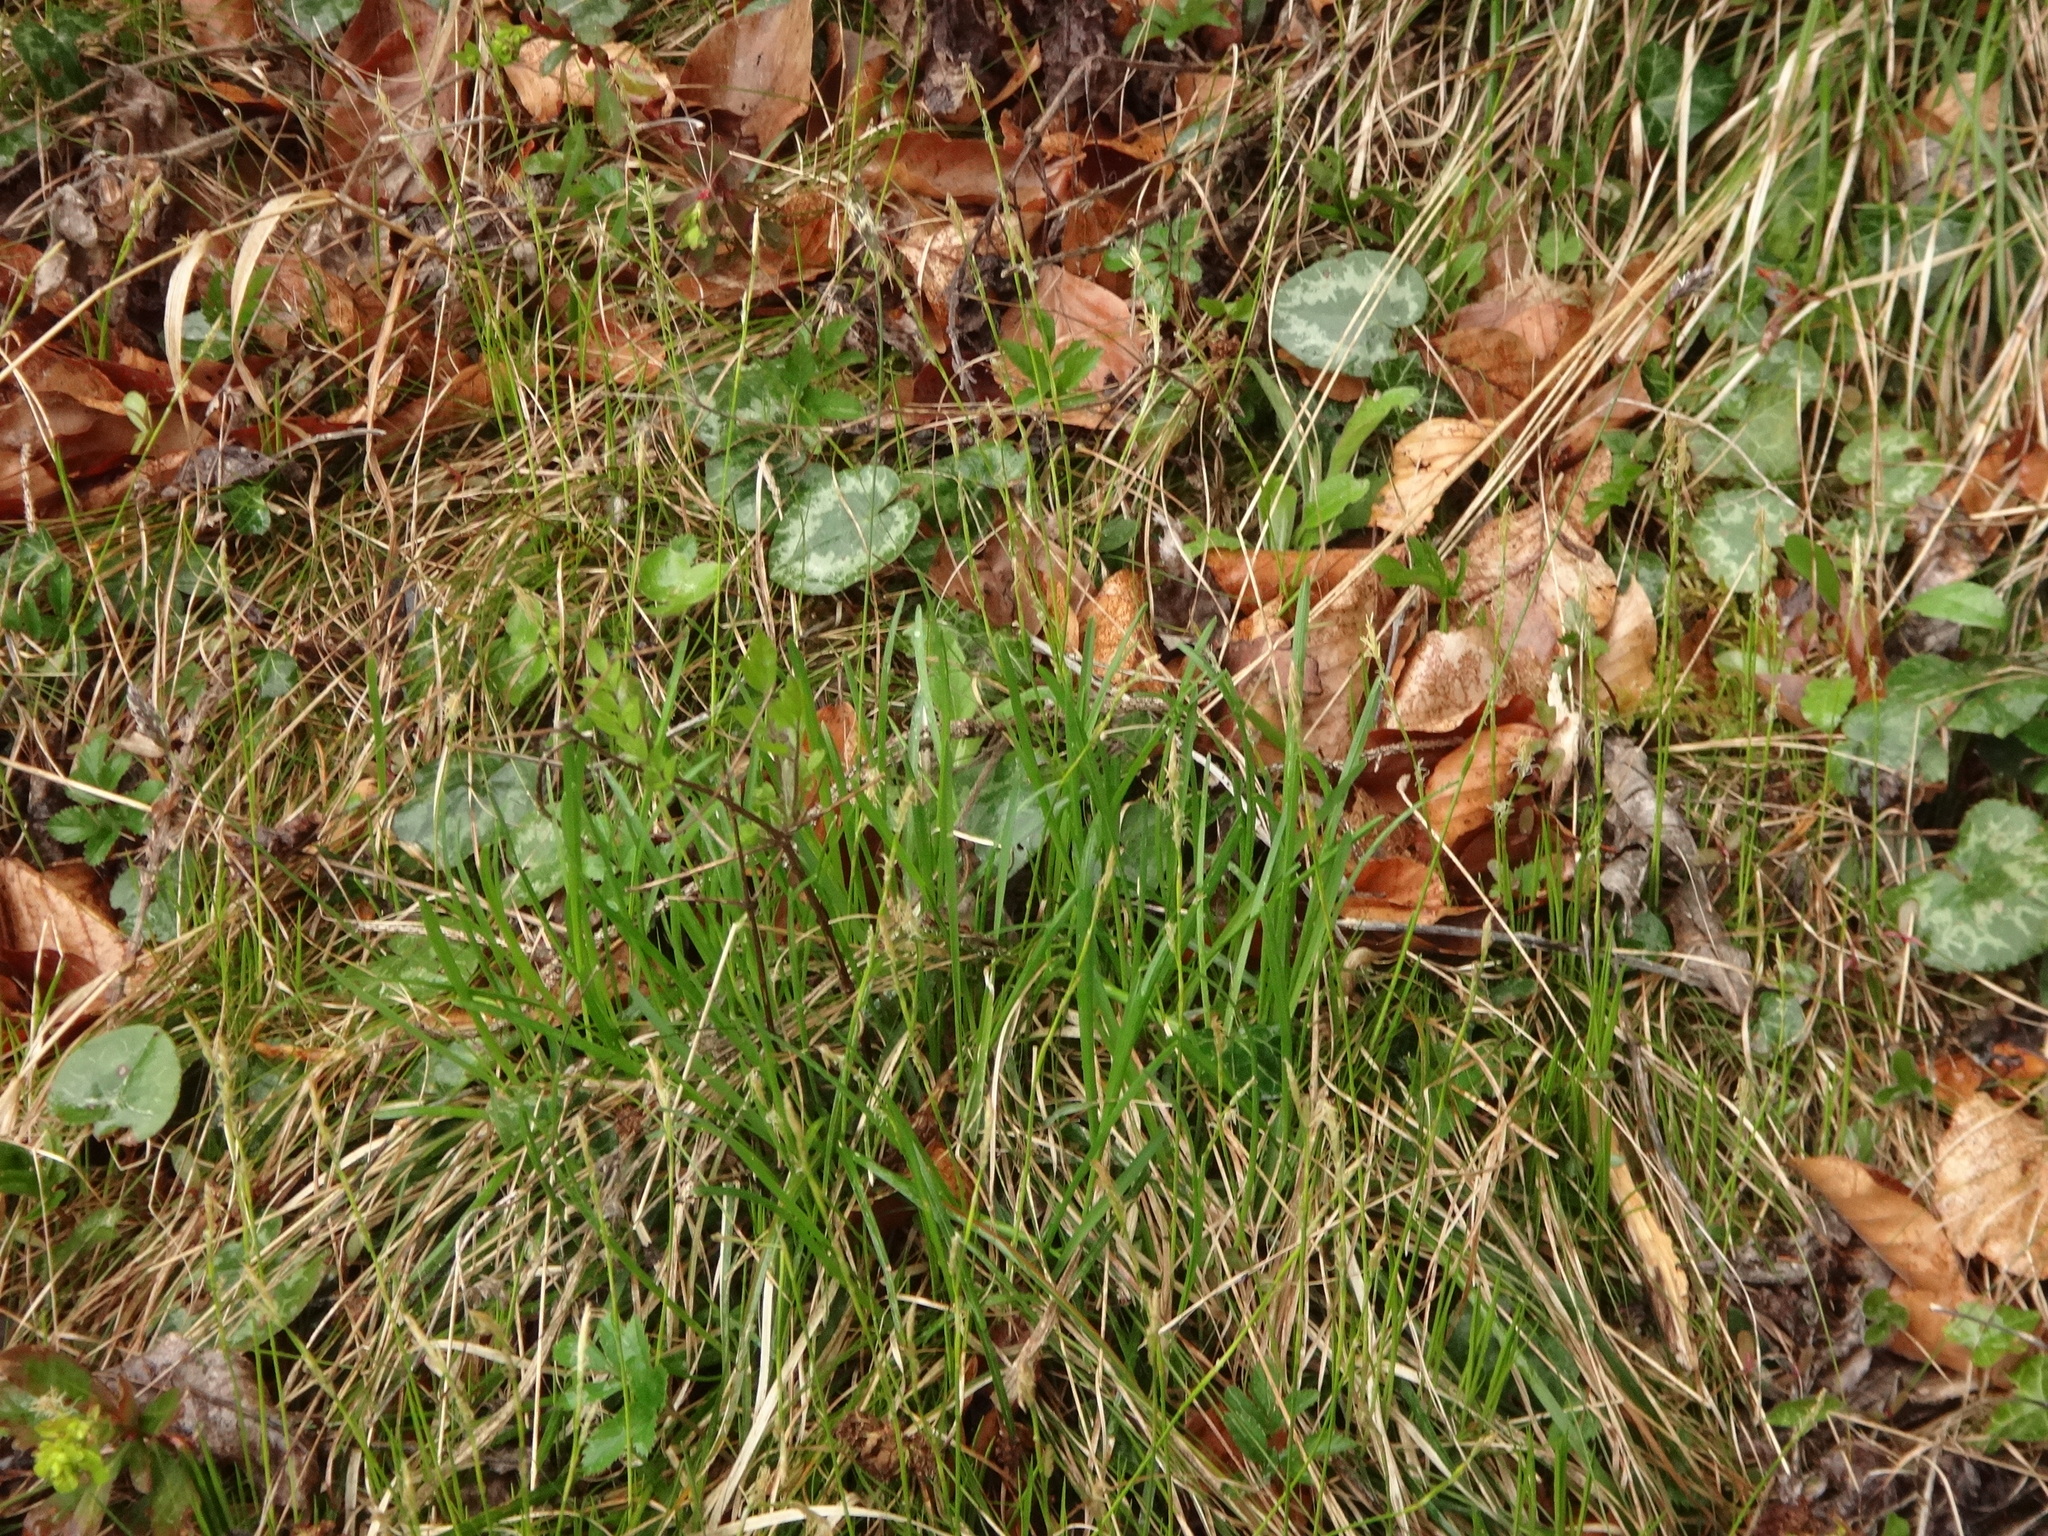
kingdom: Plantae
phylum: Tracheophyta
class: Liliopsida
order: Poales
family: Cyperaceae
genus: Carex
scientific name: Carex alba
